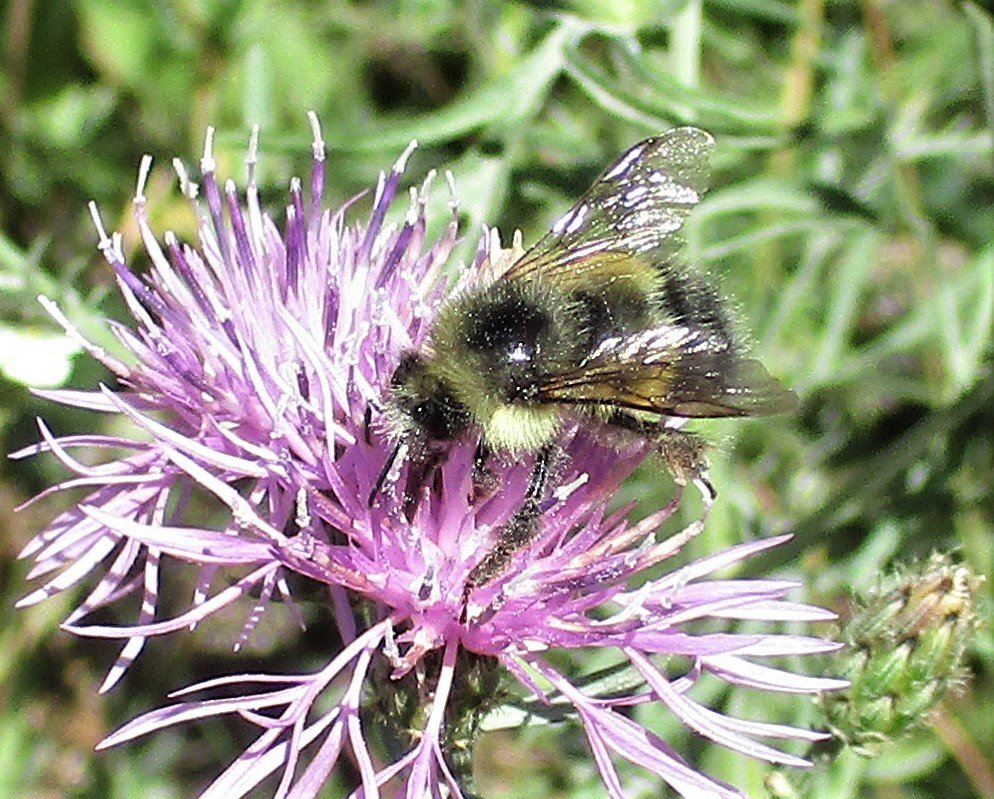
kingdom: Animalia
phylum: Arthropoda
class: Insecta
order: Hymenoptera
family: Apidae
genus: Bombus
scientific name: Bombus sitkensis
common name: Sitka bumble bee
